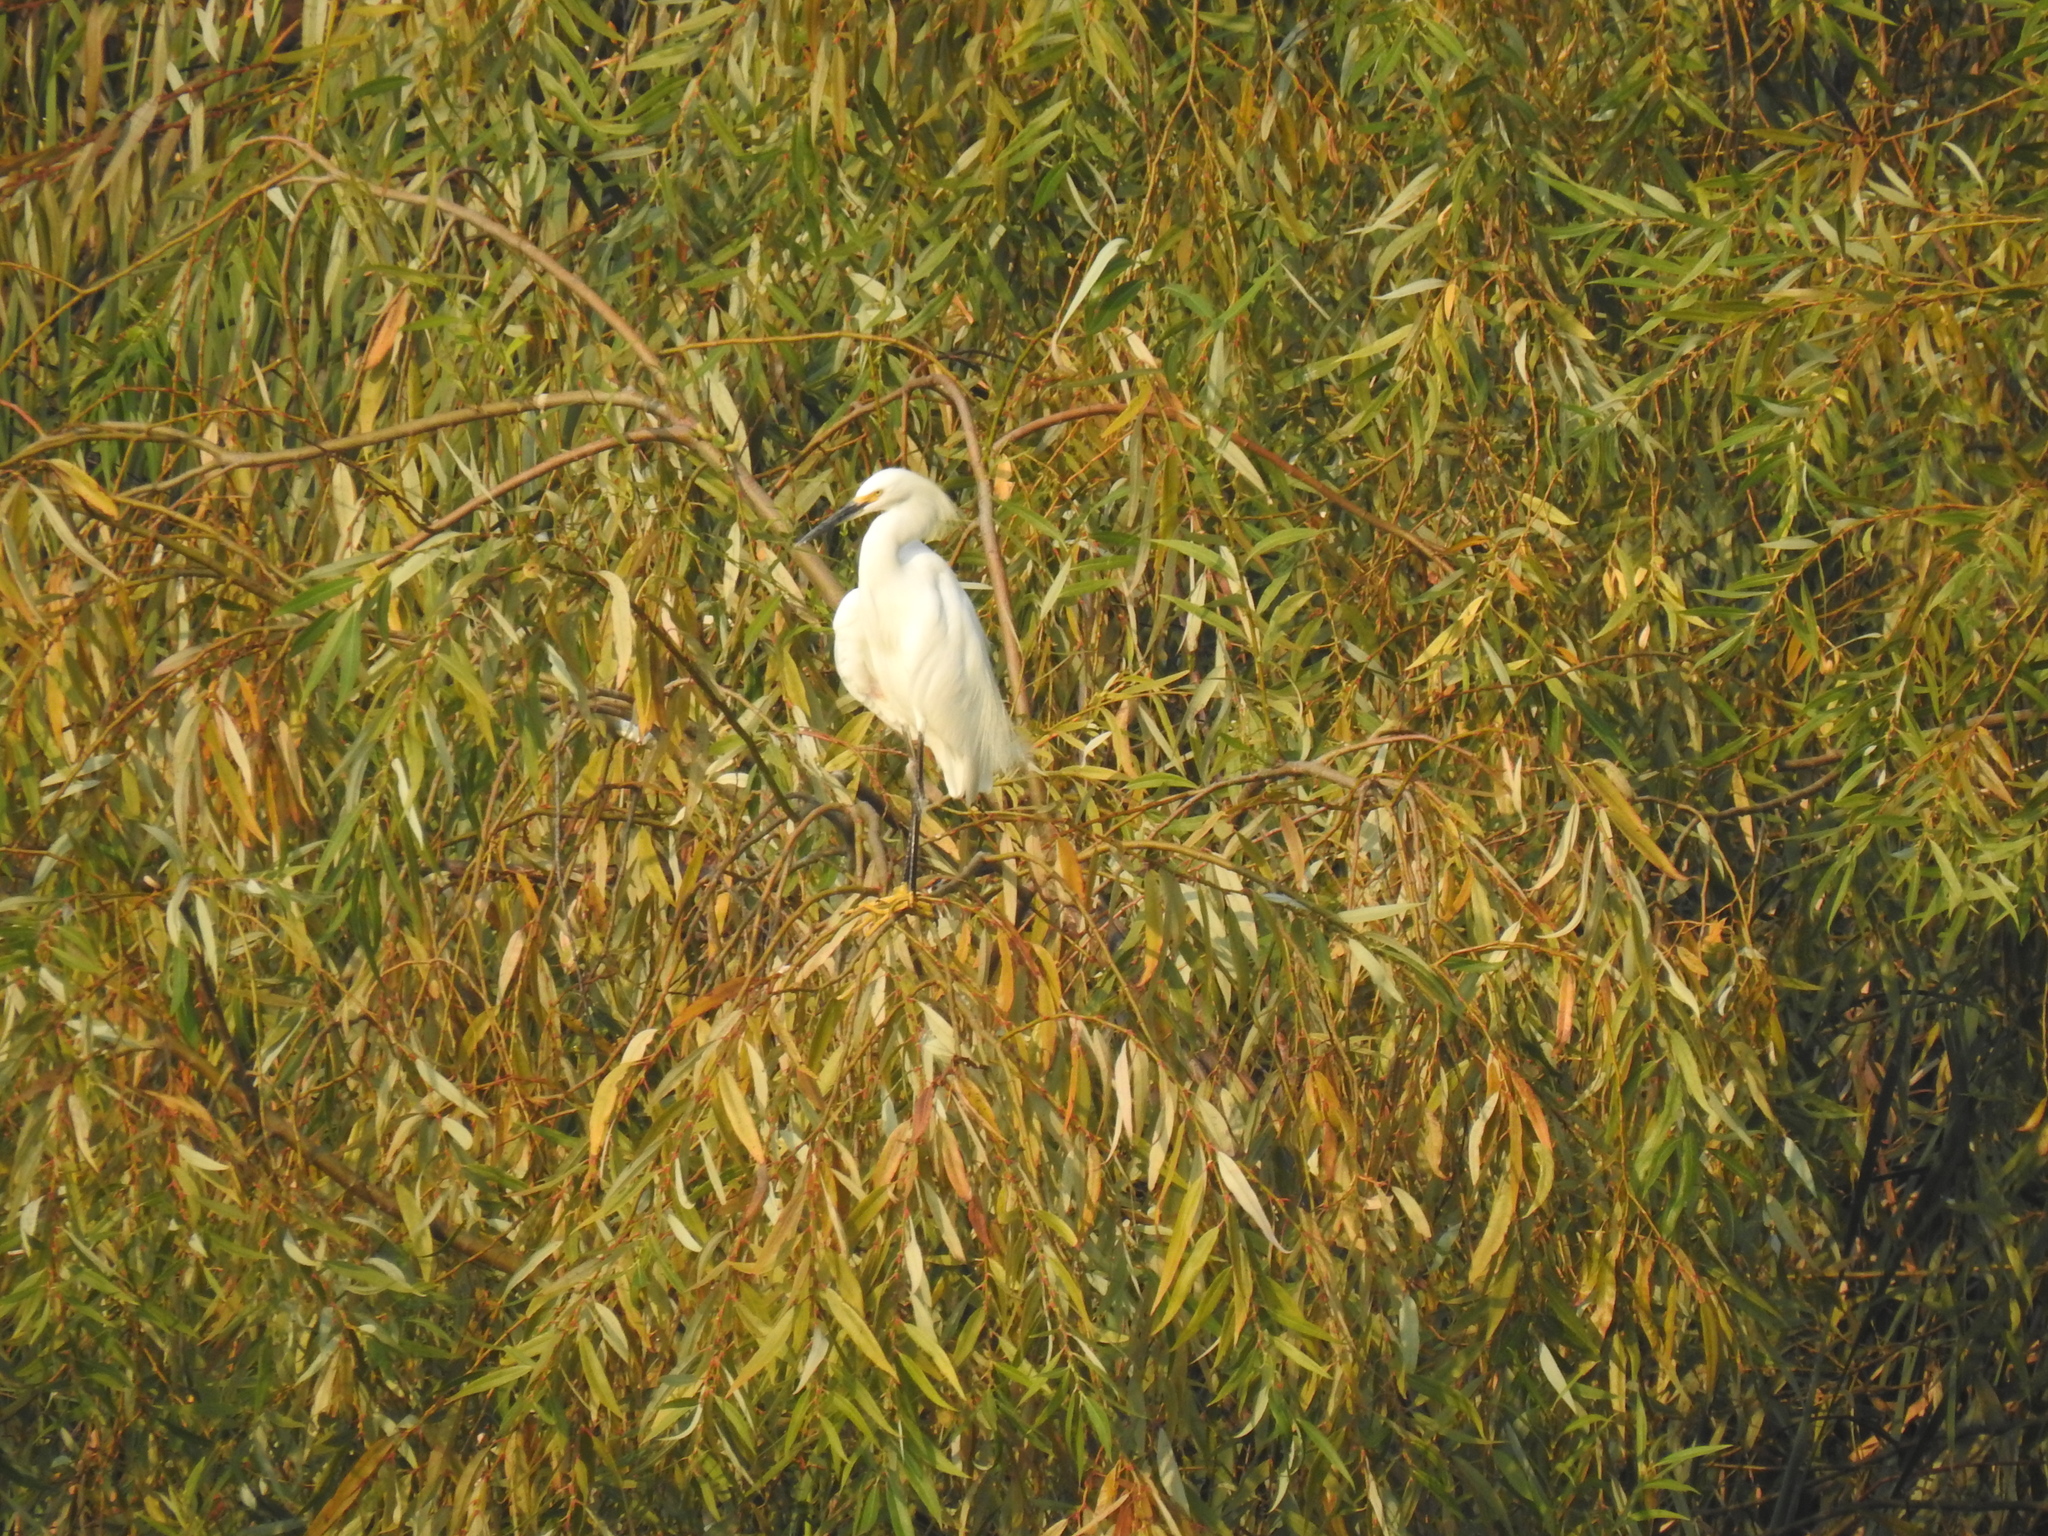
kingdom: Animalia
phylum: Chordata
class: Aves
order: Pelecaniformes
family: Ardeidae
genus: Egretta
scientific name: Egretta thula
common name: Snowy egret
